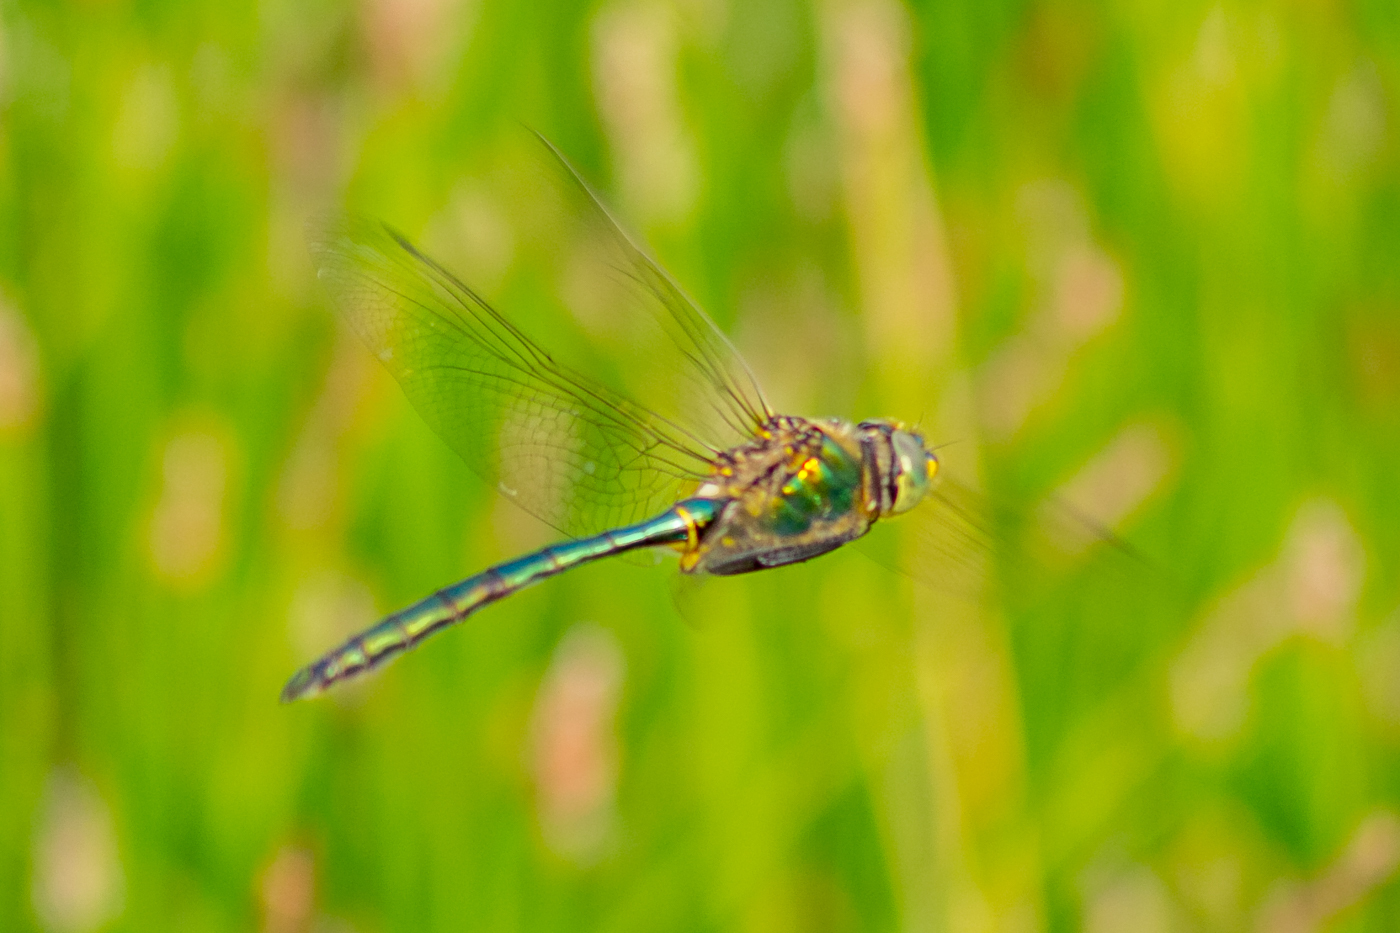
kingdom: Animalia
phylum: Arthropoda
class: Insecta
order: Odonata
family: Corduliidae
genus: Somatochlora
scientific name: Somatochlora metallica
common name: Brilliant emerald
